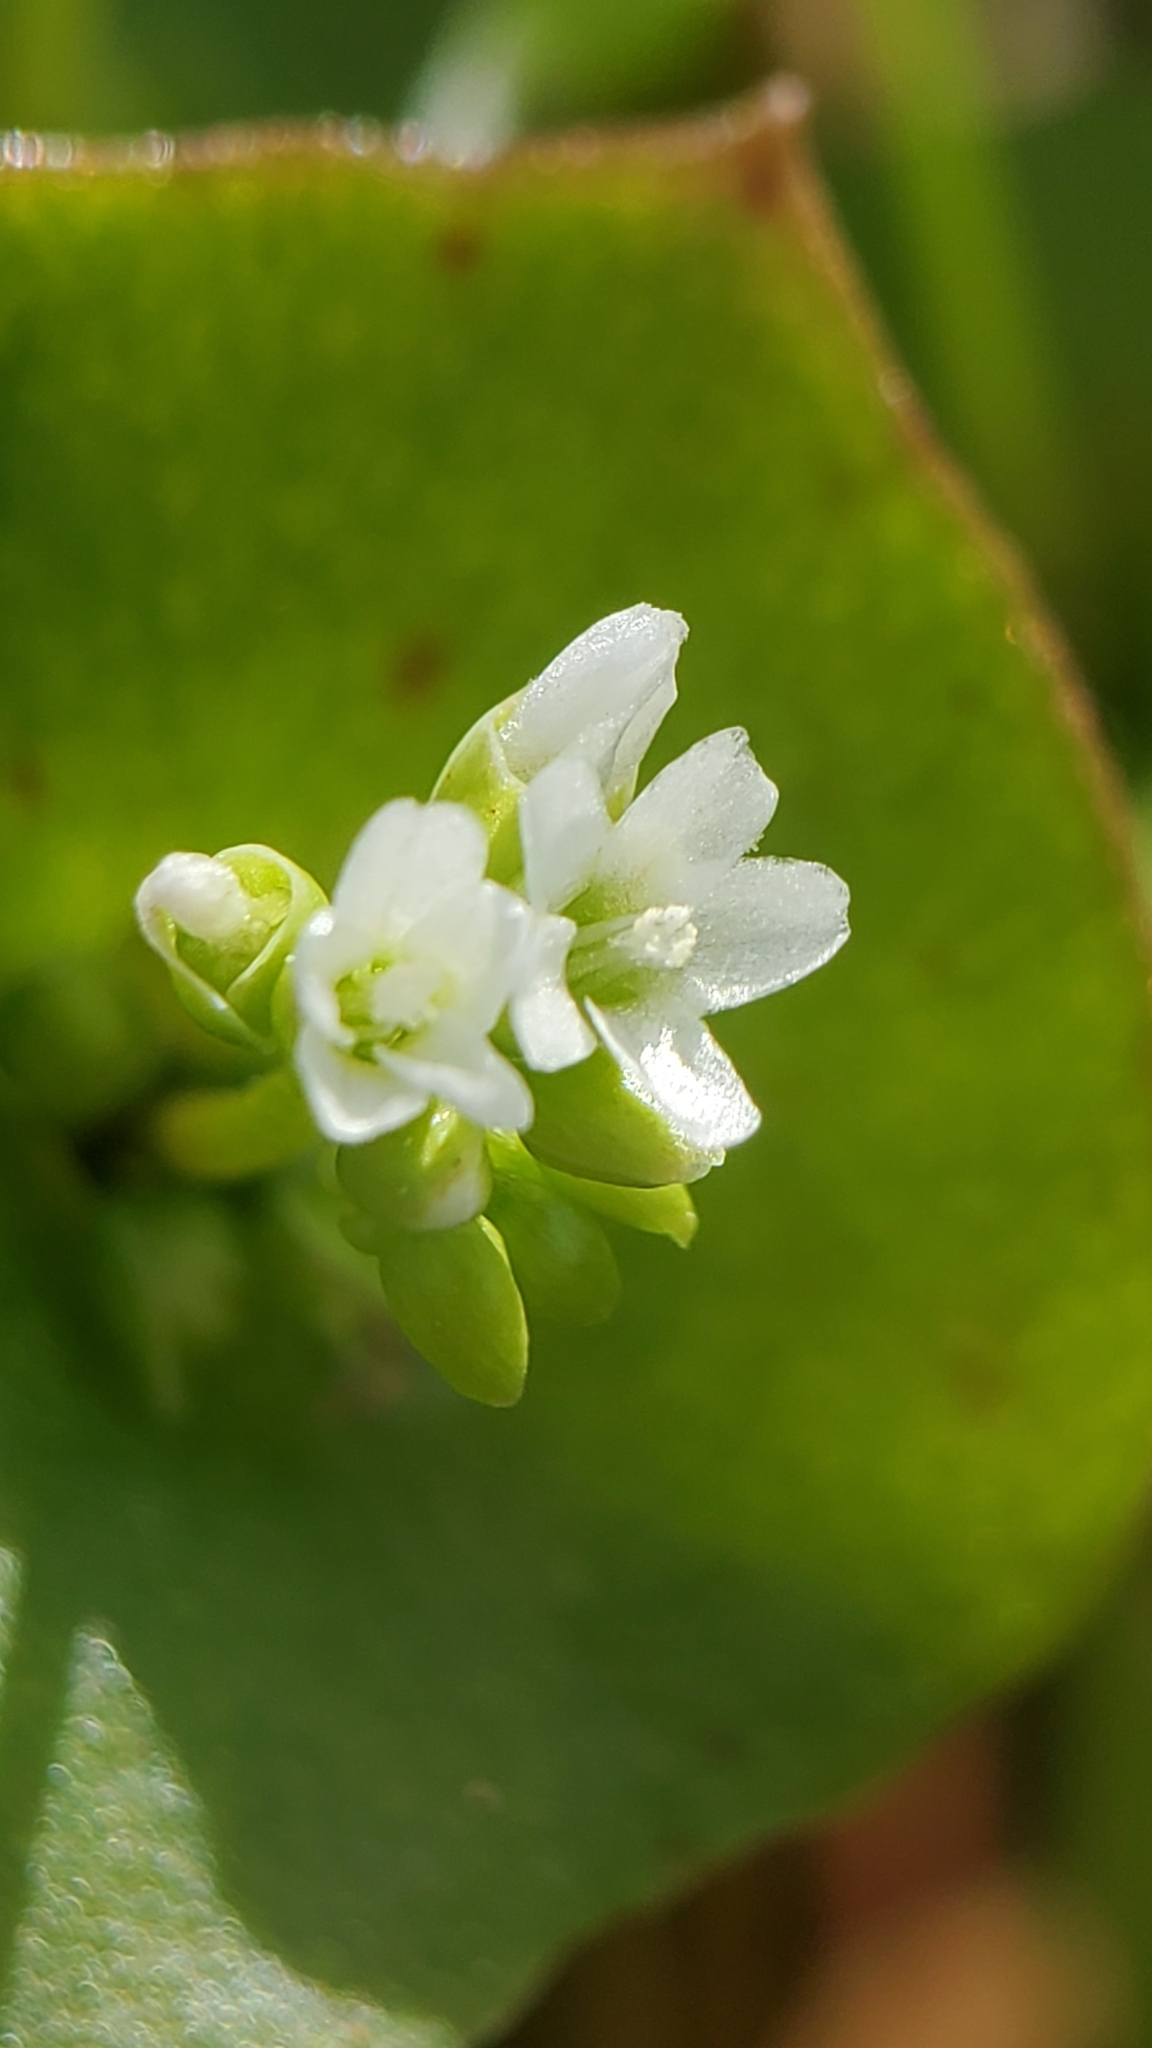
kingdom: Plantae
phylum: Tracheophyta
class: Magnoliopsida
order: Caryophyllales
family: Montiaceae
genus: Claytonia
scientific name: Claytonia perfoliata
